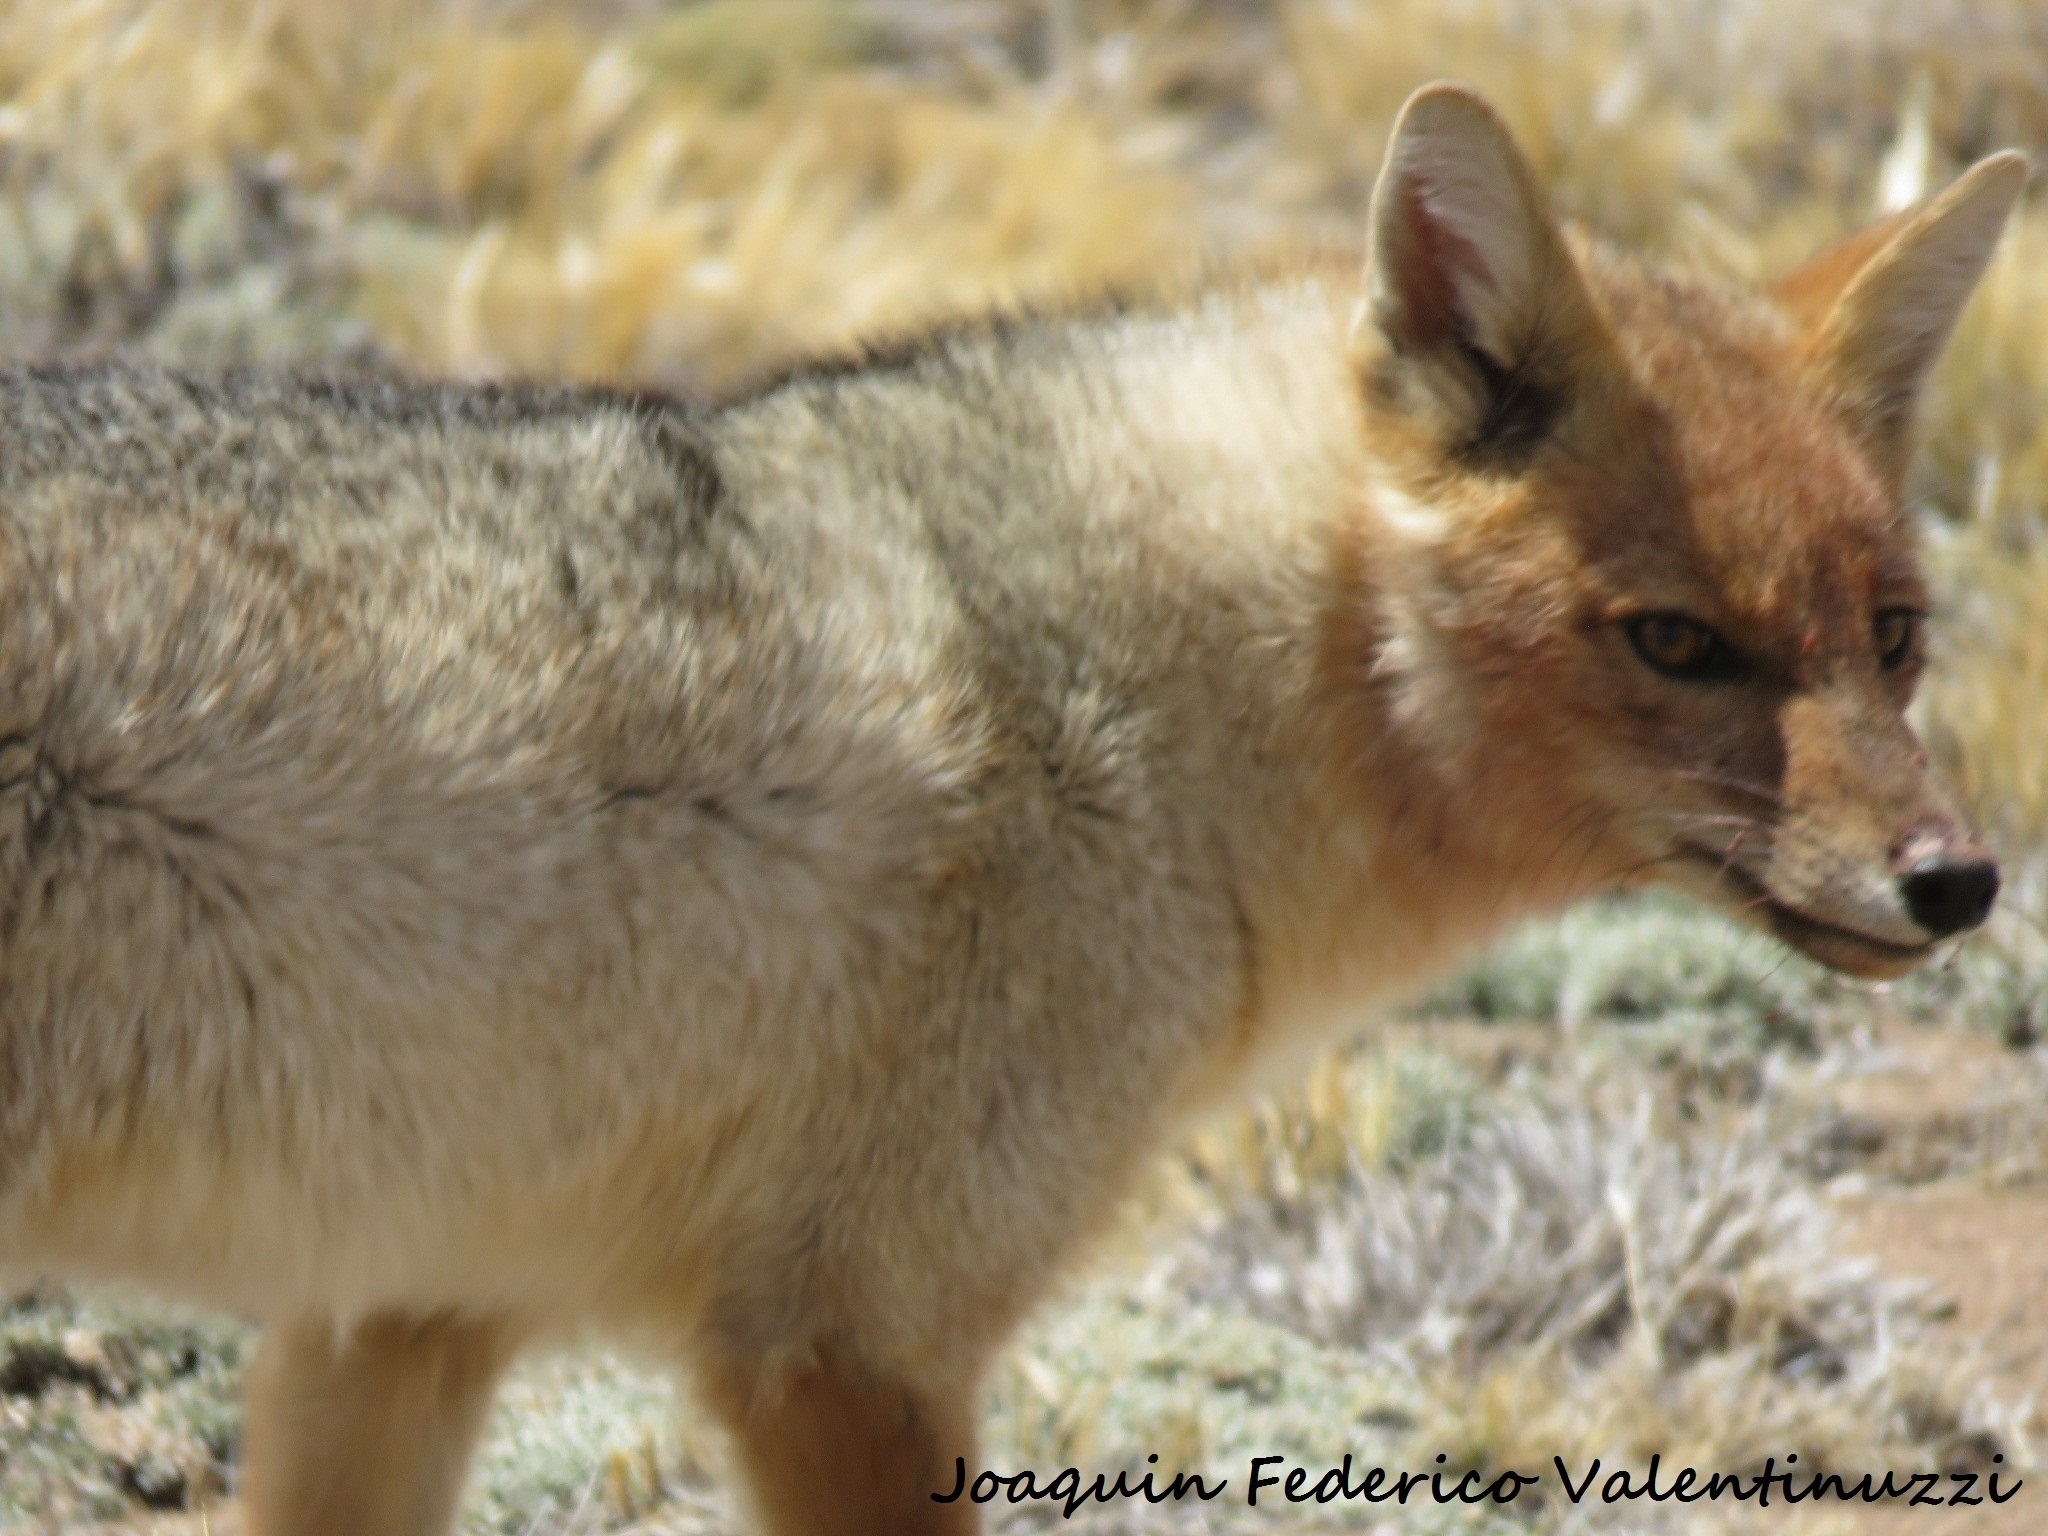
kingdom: Animalia
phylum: Chordata
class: Mammalia
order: Carnivora
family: Canidae
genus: Lycalopex
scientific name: Lycalopex culpaeus
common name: Culpeo
